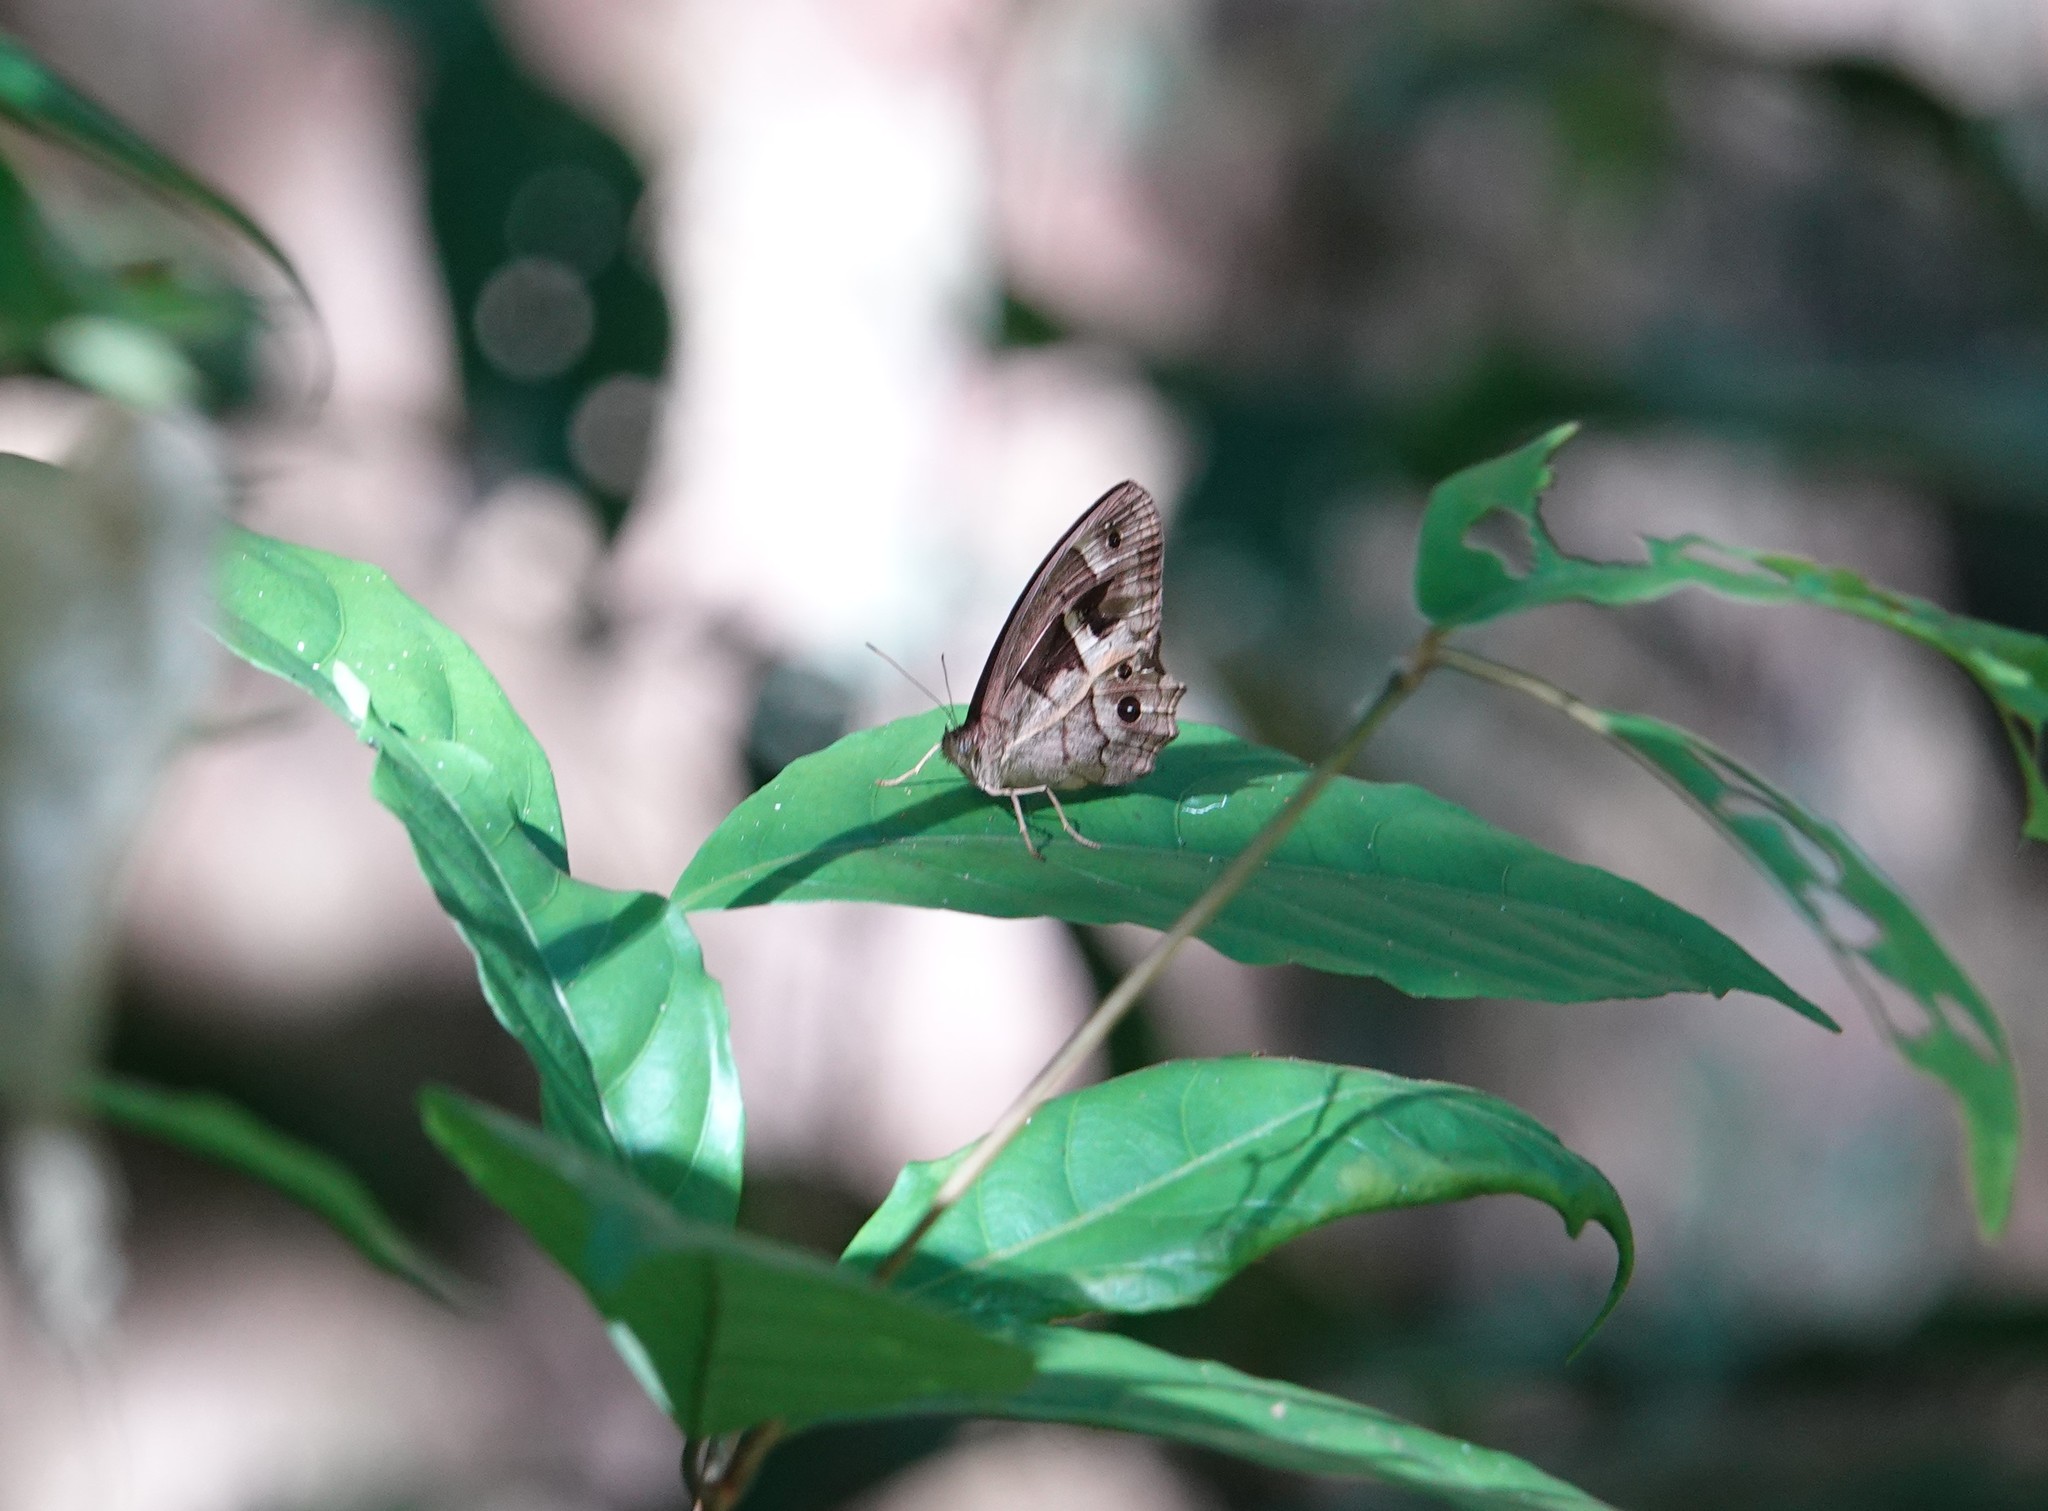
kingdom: Animalia
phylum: Arthropoda
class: Insecta
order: Lepidoptera
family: Nymphalidae
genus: Posttaygetis
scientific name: Posttaygetis penelea
